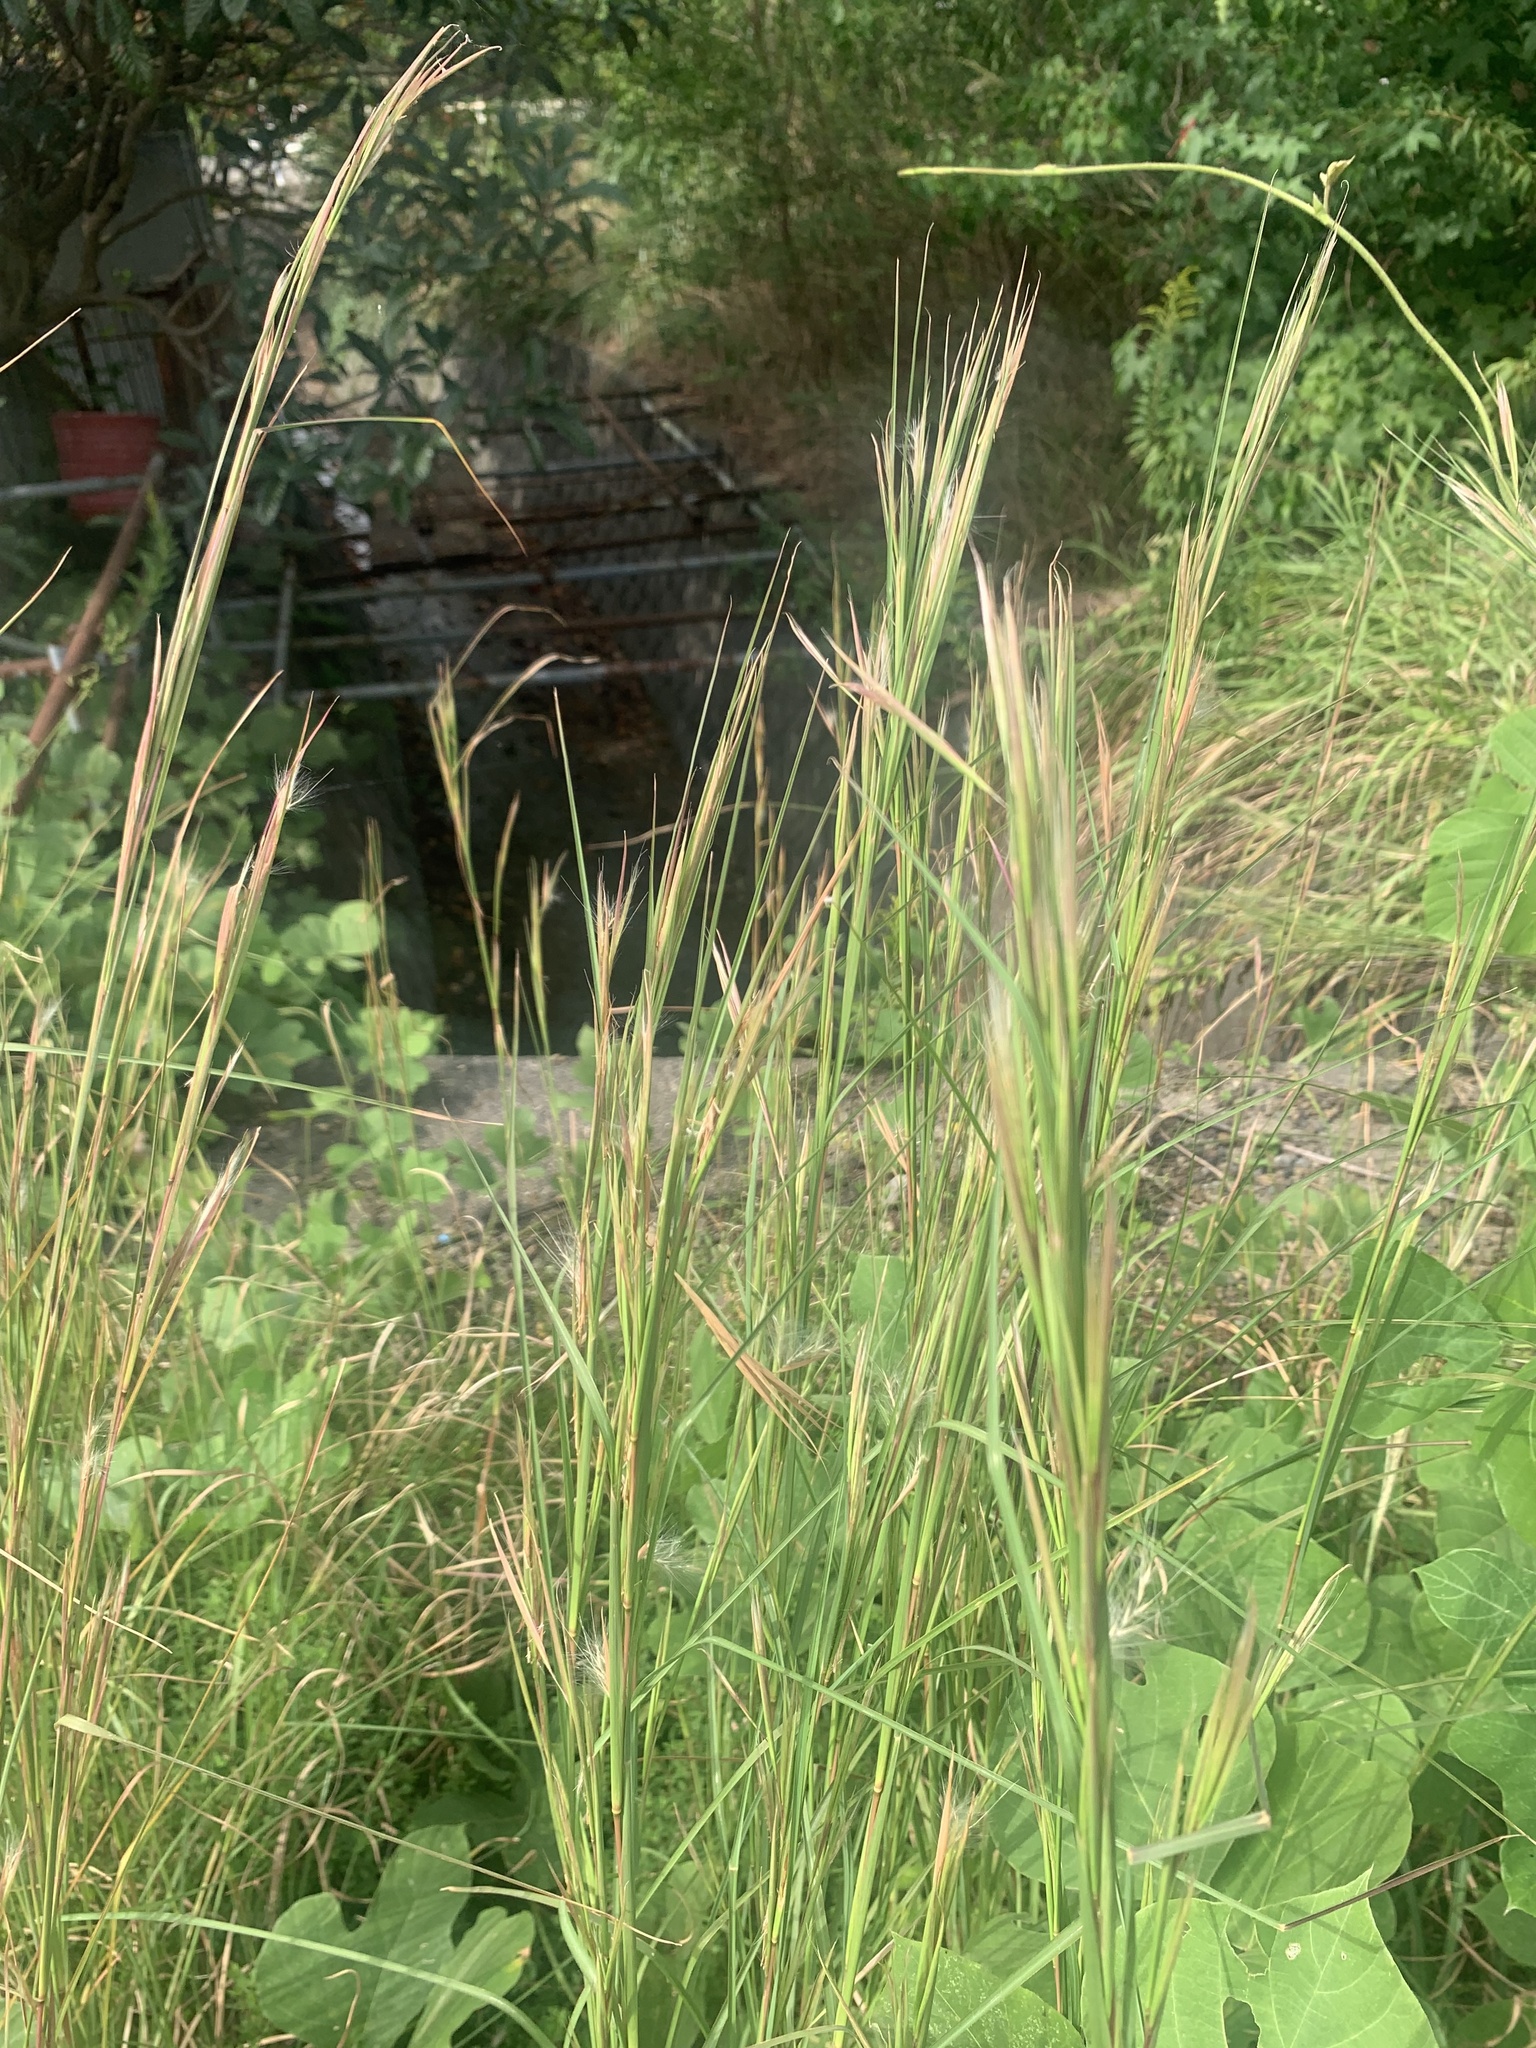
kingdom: Plantae
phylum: Tracheophyta
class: Liliopsida
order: Poales
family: Poaceae
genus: Andropogon
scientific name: Andropogon virginicus
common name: Broomsedge bluestem
